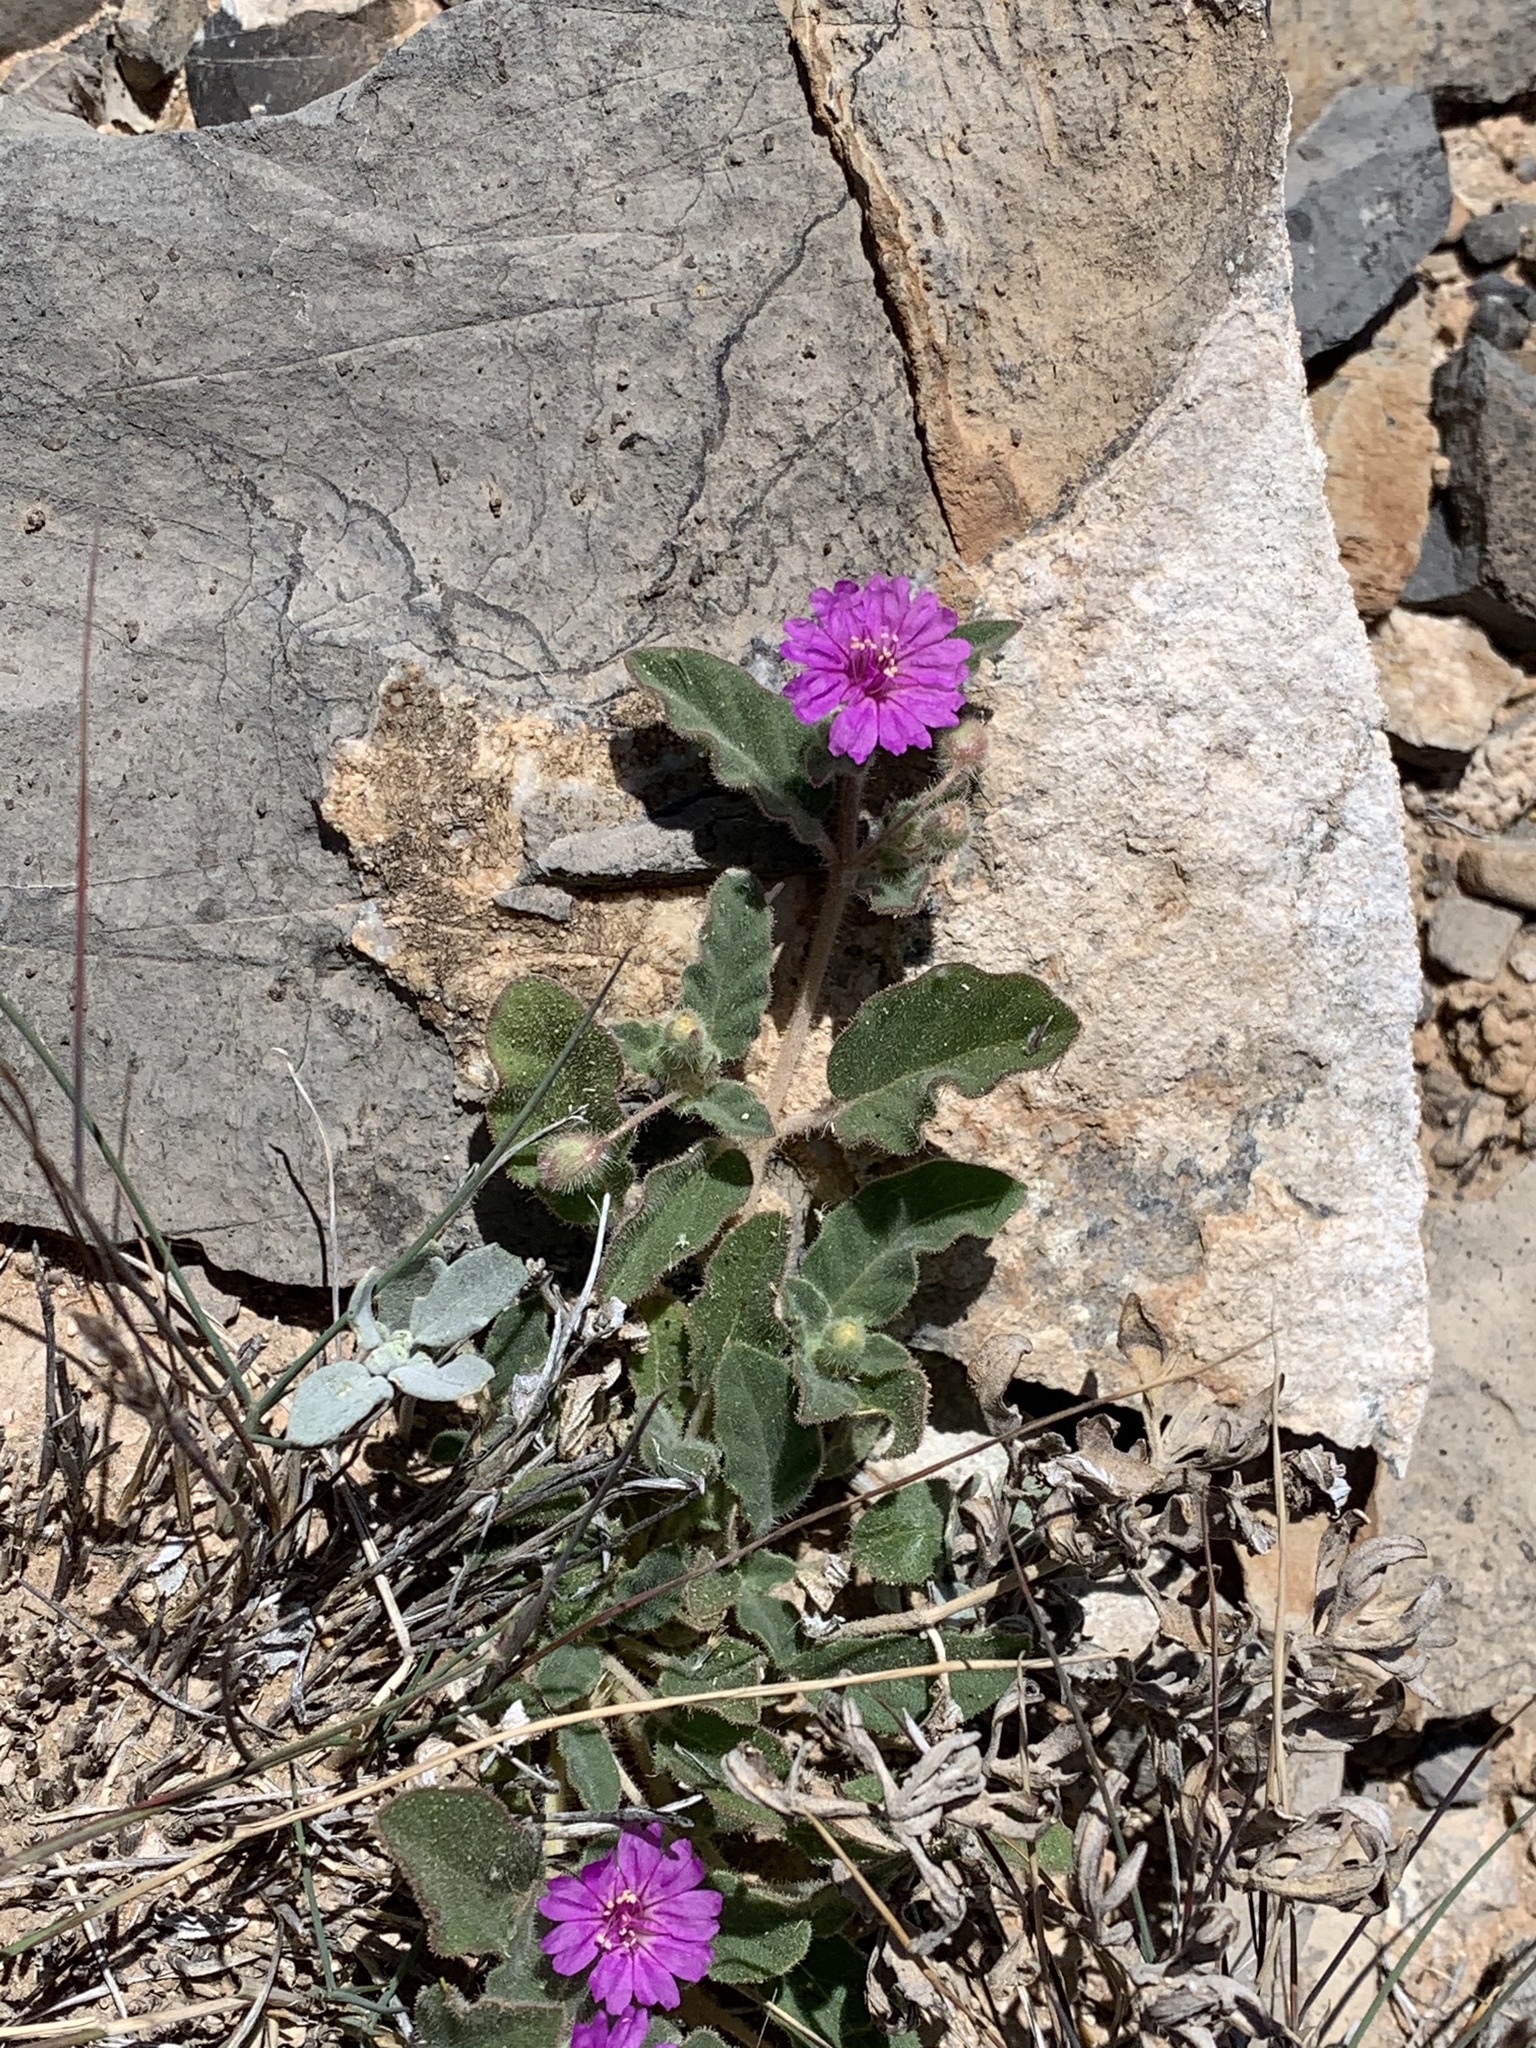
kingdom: Plantae
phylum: Tracheophyta
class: Magnoliopsida
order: Caryophyllales
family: Nyctaginaceae
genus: Allionia
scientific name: Allionia incarnata
